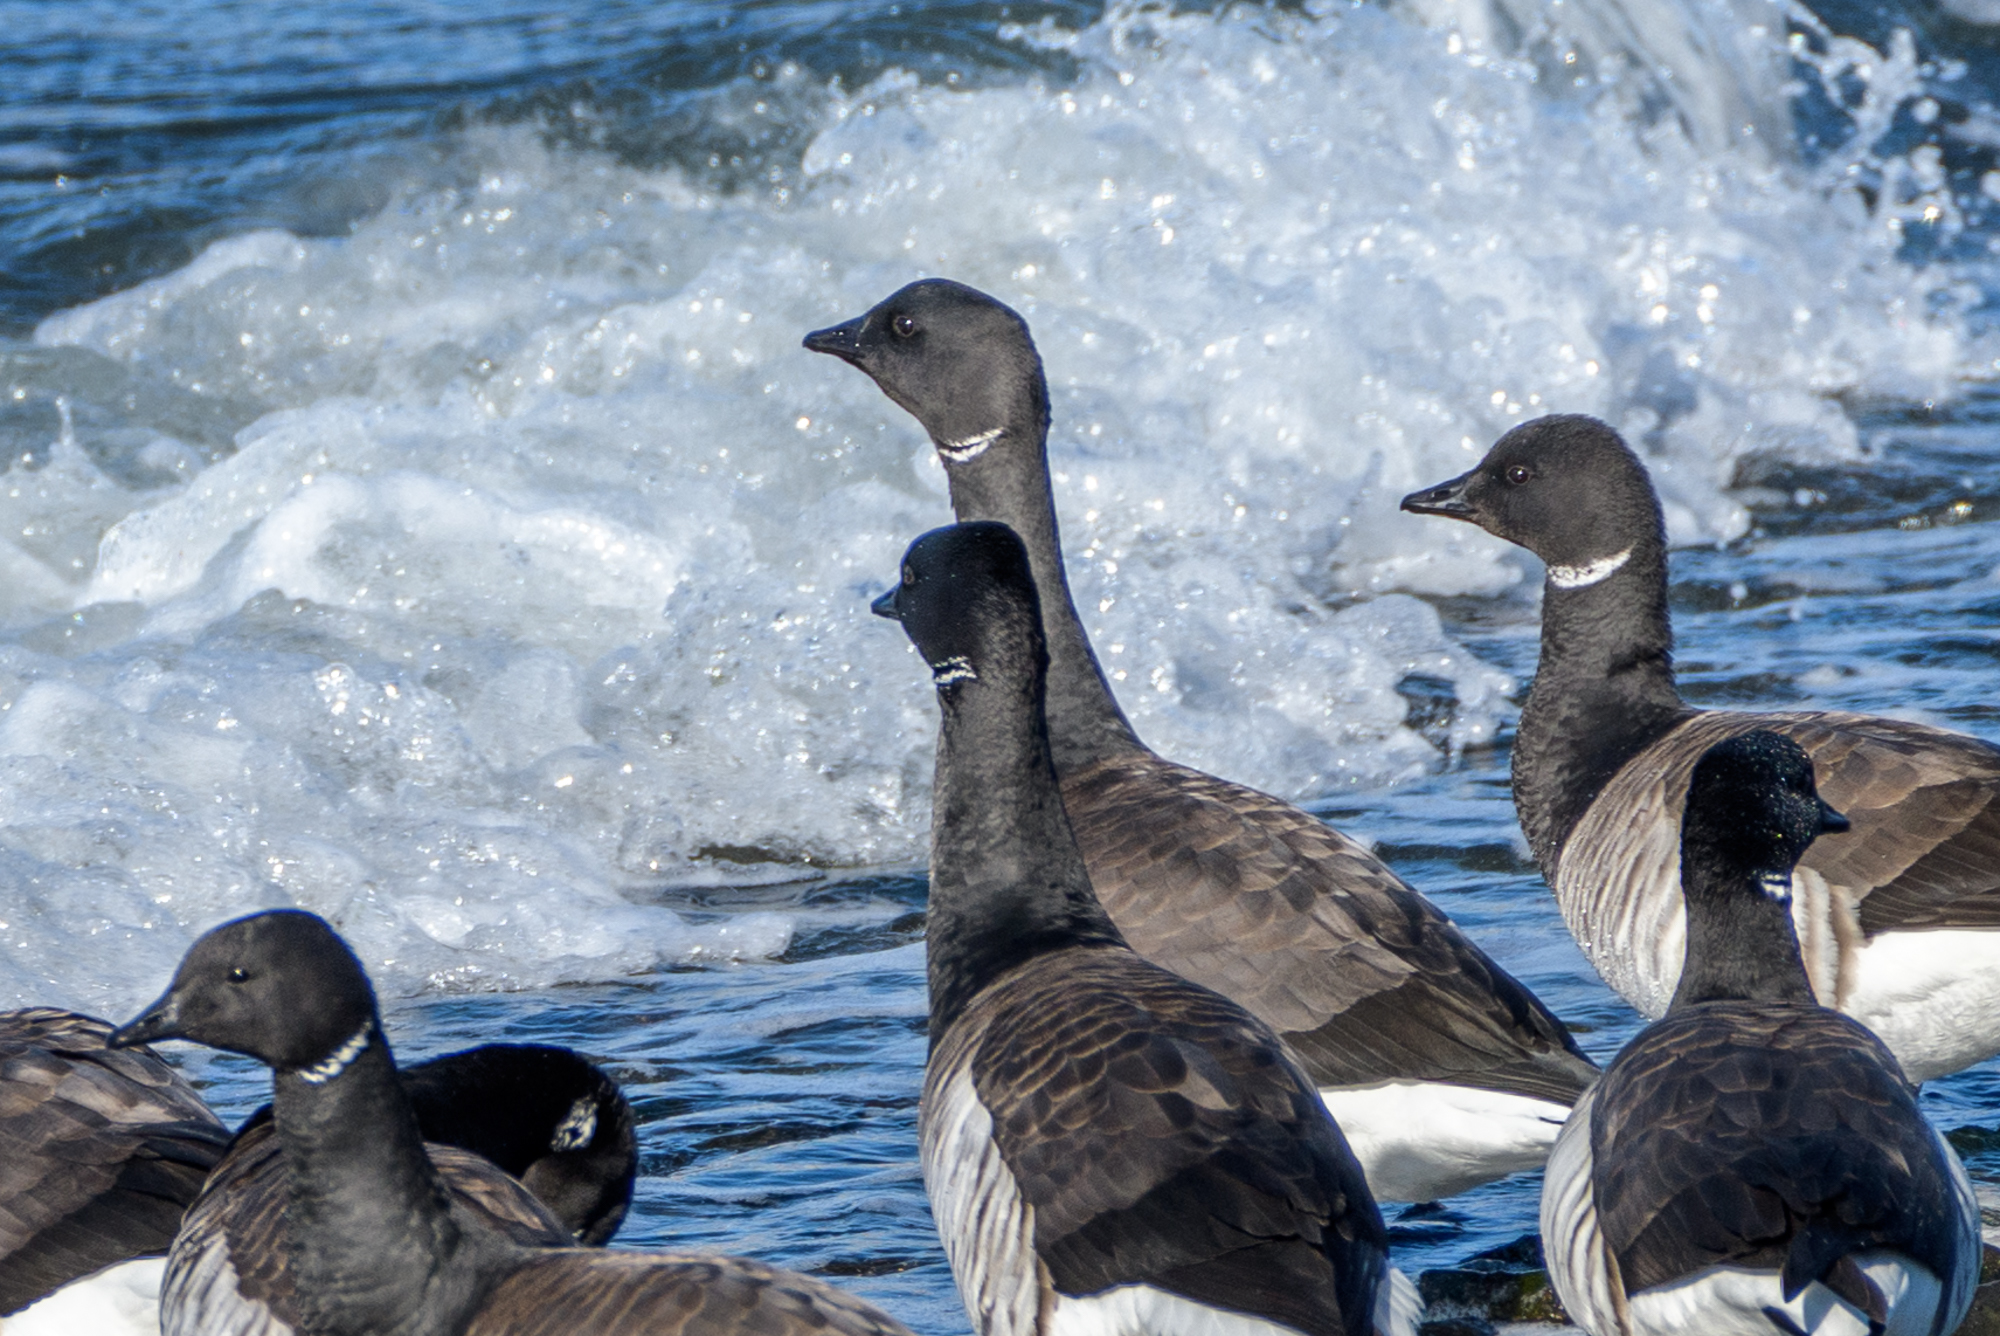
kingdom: Animalia
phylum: Chordata
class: Aves
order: Anseriformes
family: Anatidae
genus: Branta
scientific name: Branta bernicla
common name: Brant goose
